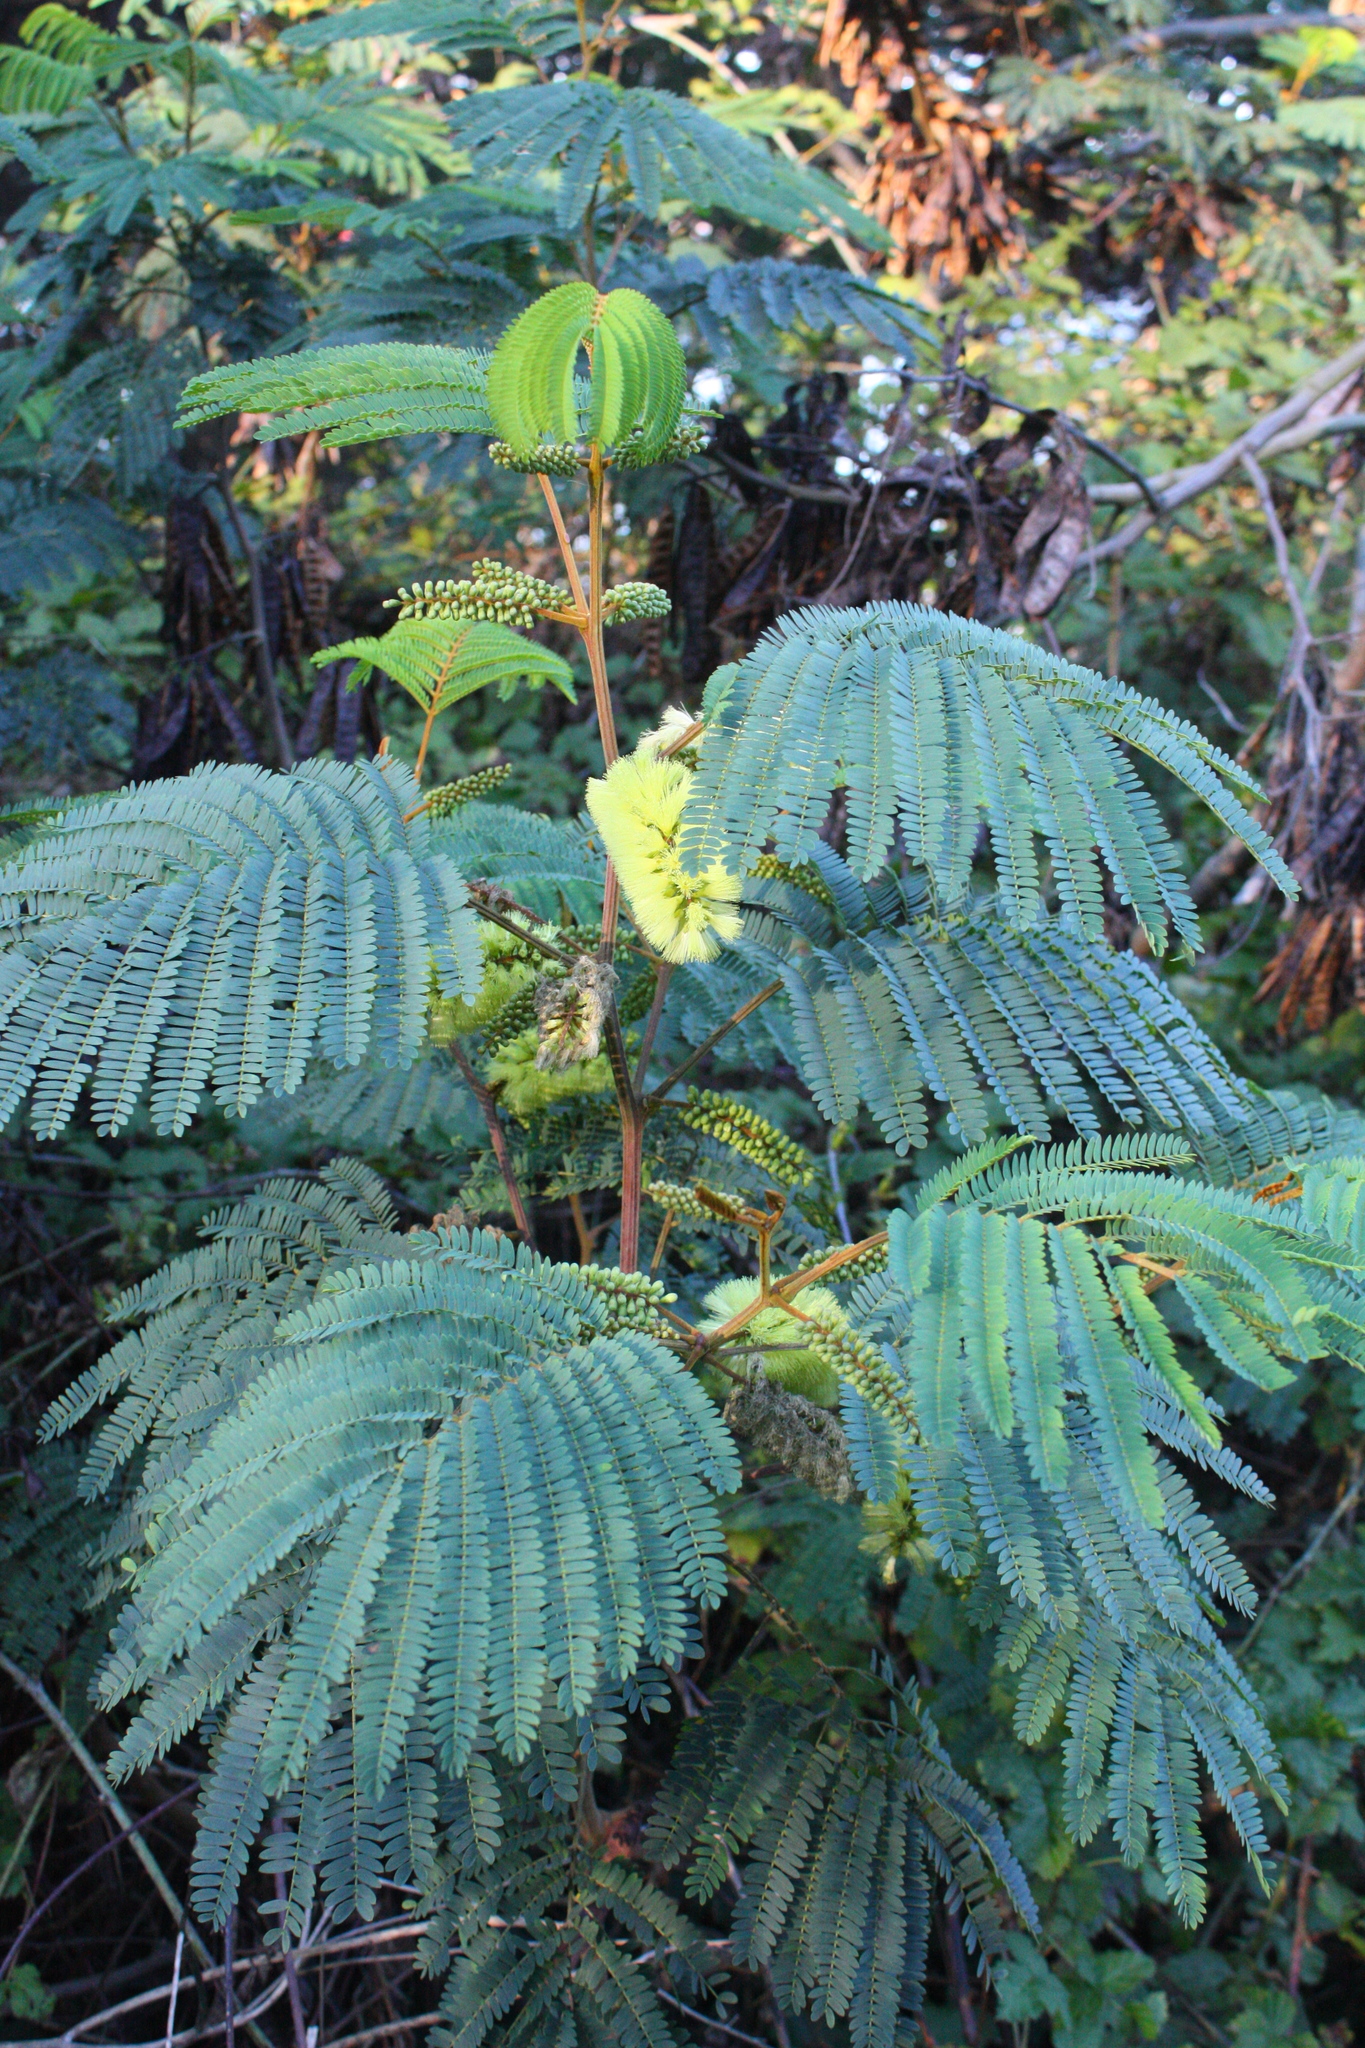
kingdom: Plantae
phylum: Tracheophyta
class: Magnoliopsida
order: Fabales
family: Fabaceae
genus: Paraserianthes
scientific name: Paraserianthes lophantha
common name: Plume albizia
